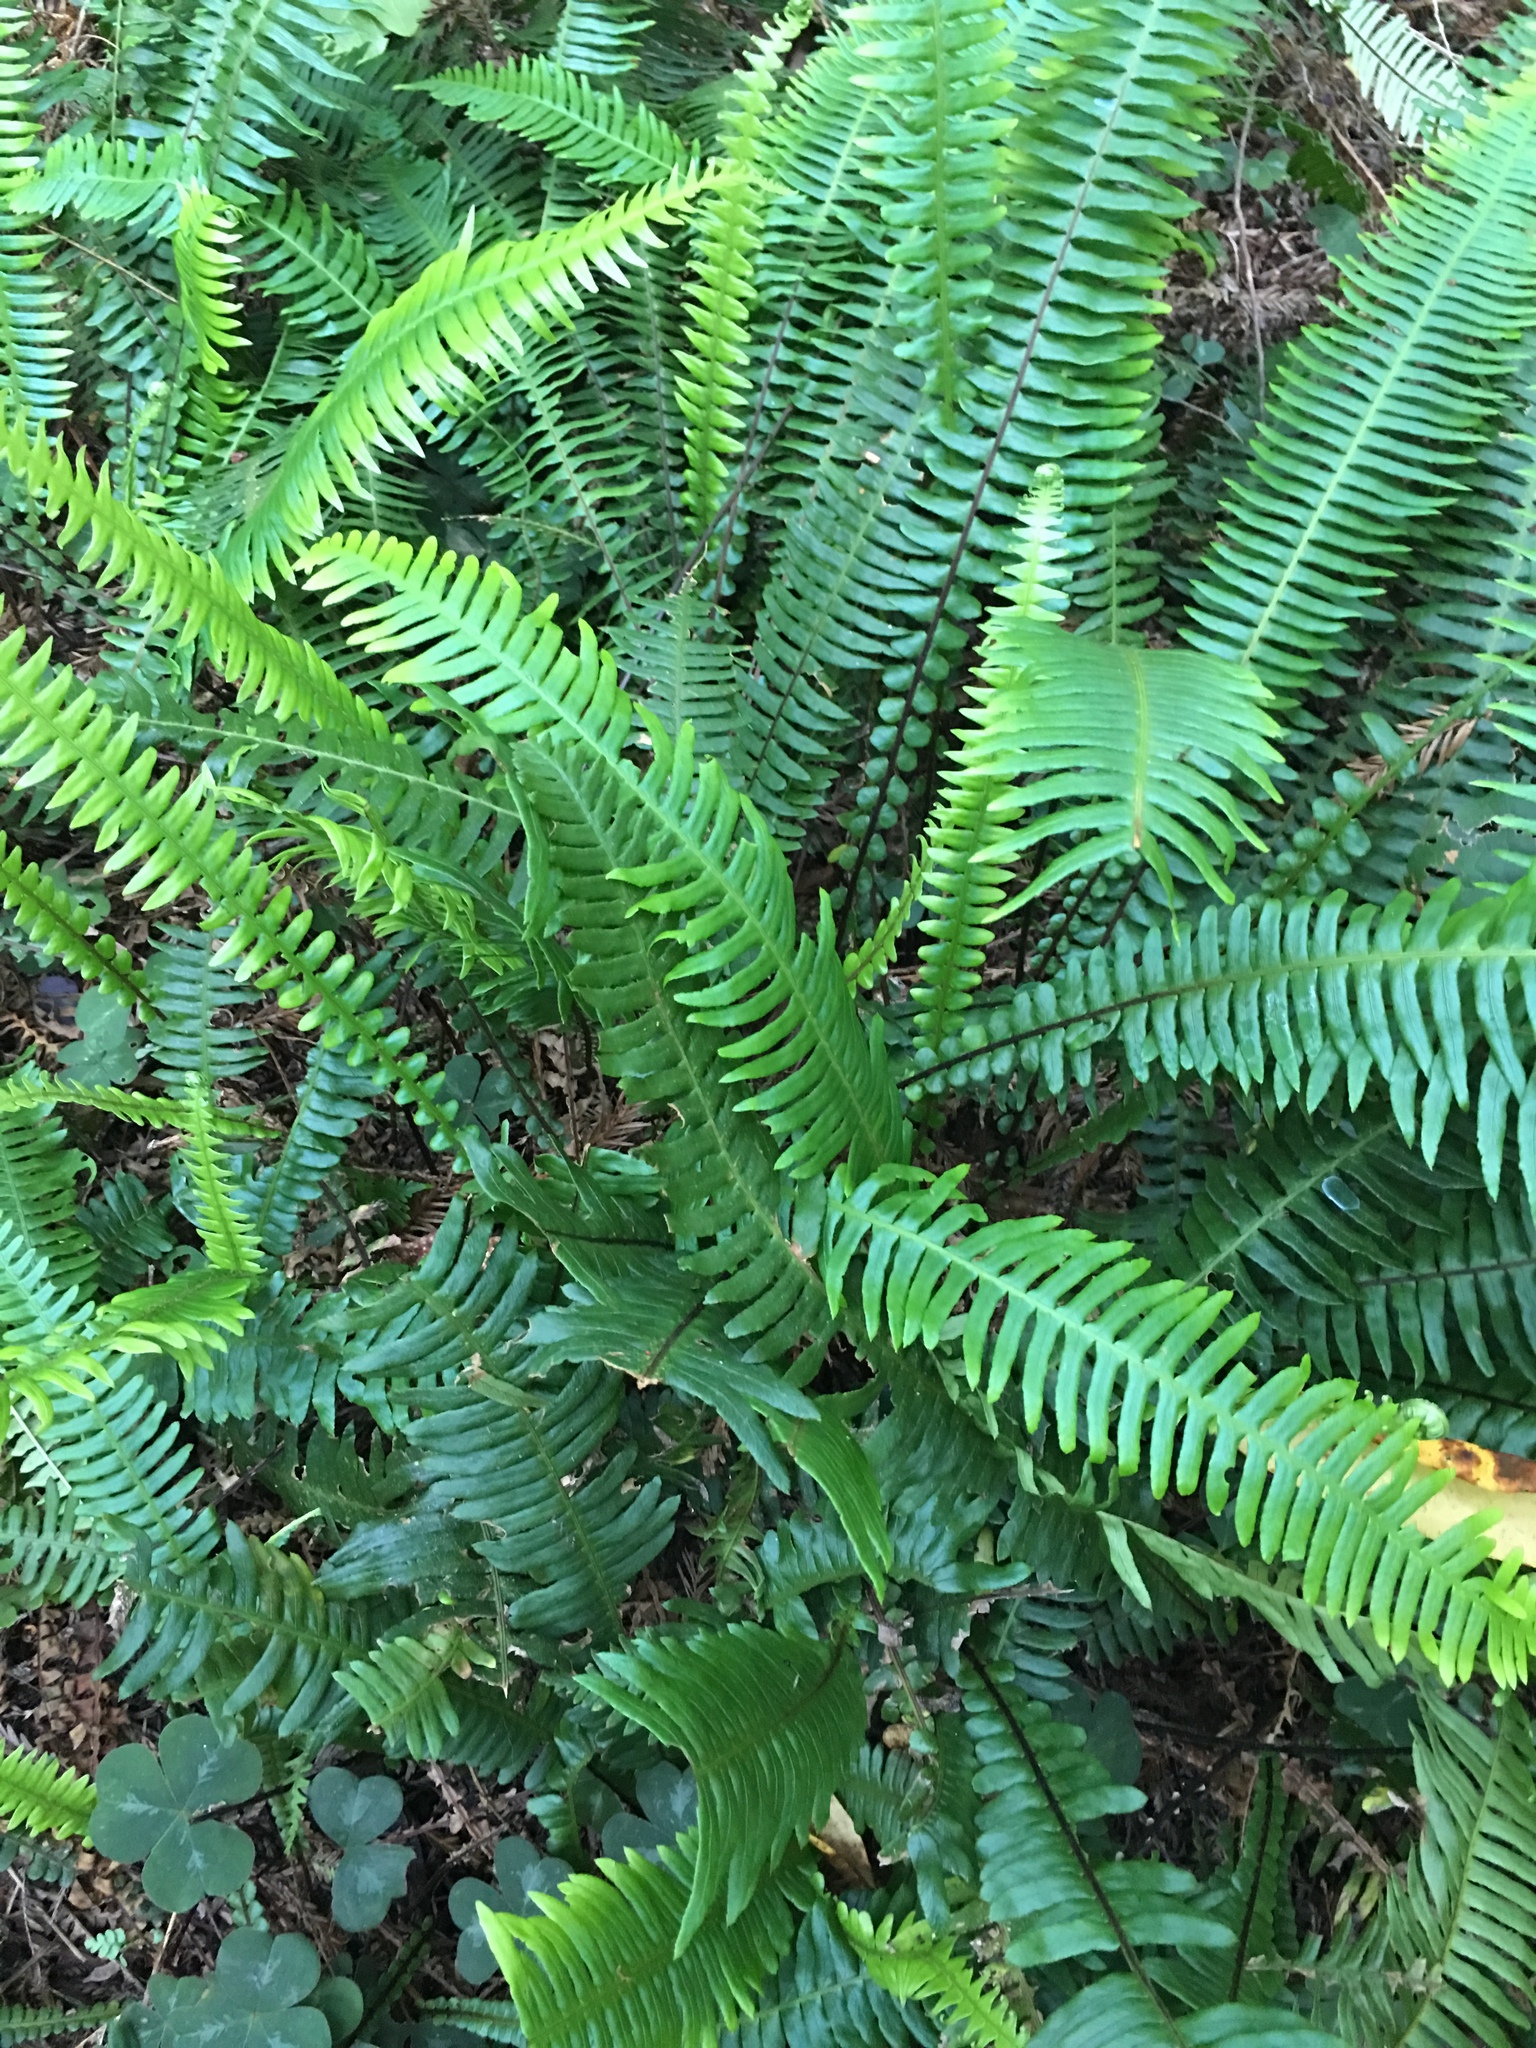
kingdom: Plantae
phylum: Tracheophyta
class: Polypodiopsida
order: Polypodiales
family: Blechnaceae
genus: Struthiopteris
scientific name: Struthiopteris spicant
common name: Deer fern
